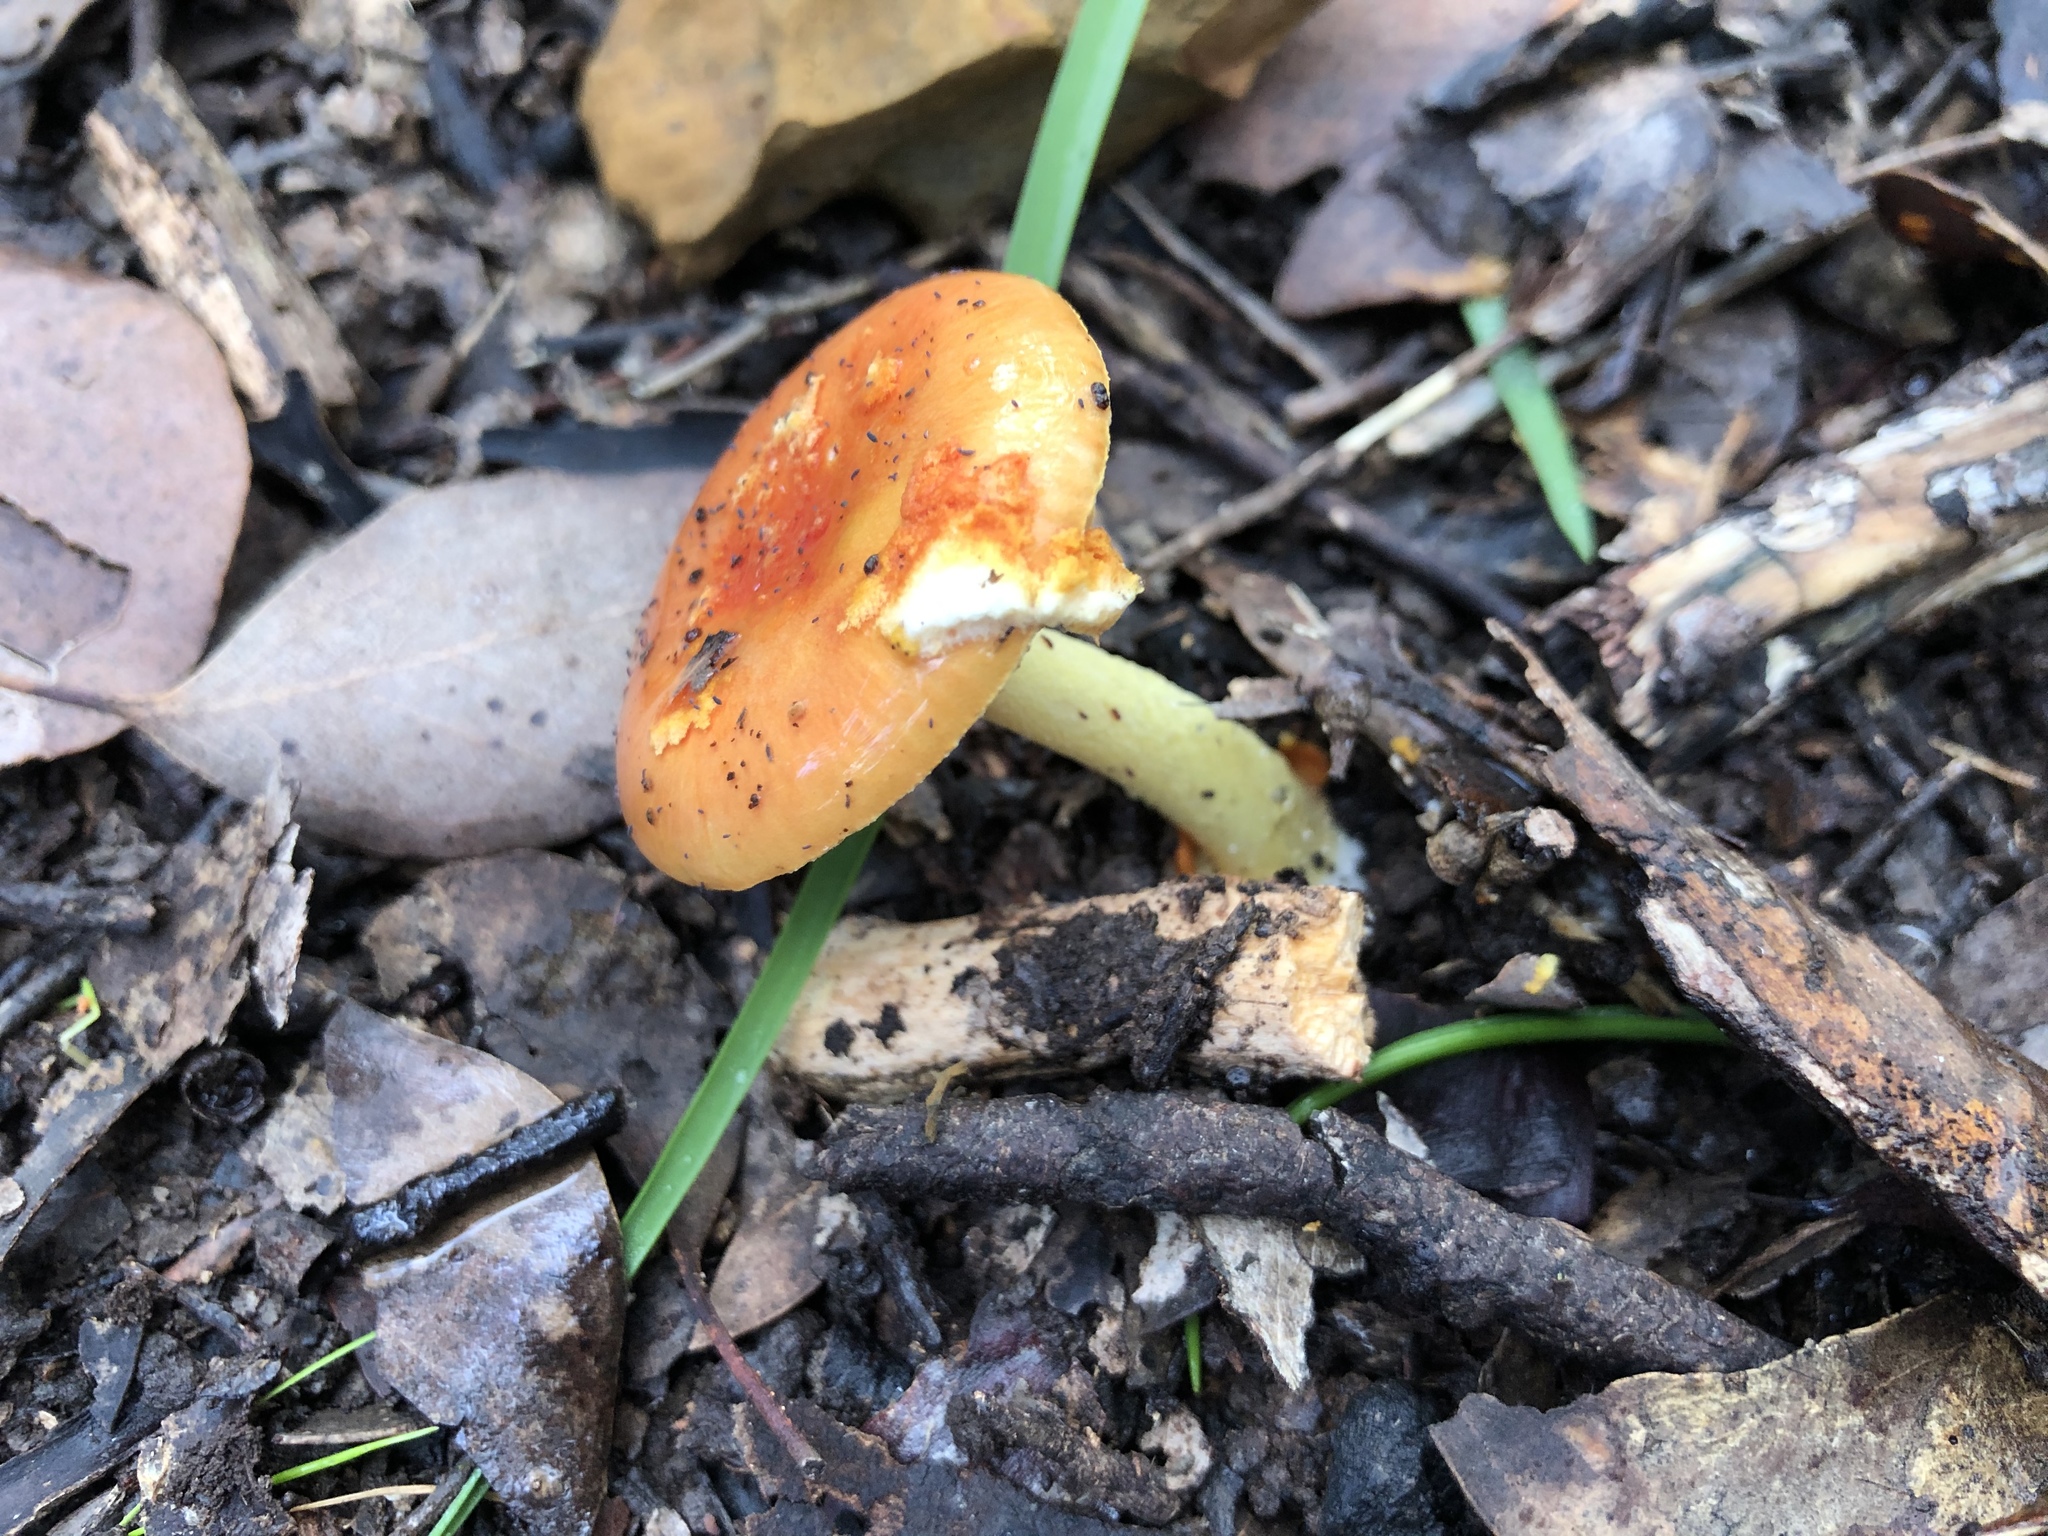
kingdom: Fungi
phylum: Basidiomycota
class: Agaricomycetes
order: Agaricales
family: Amanitaceae
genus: Amanita
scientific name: Amanita xanthocephala
